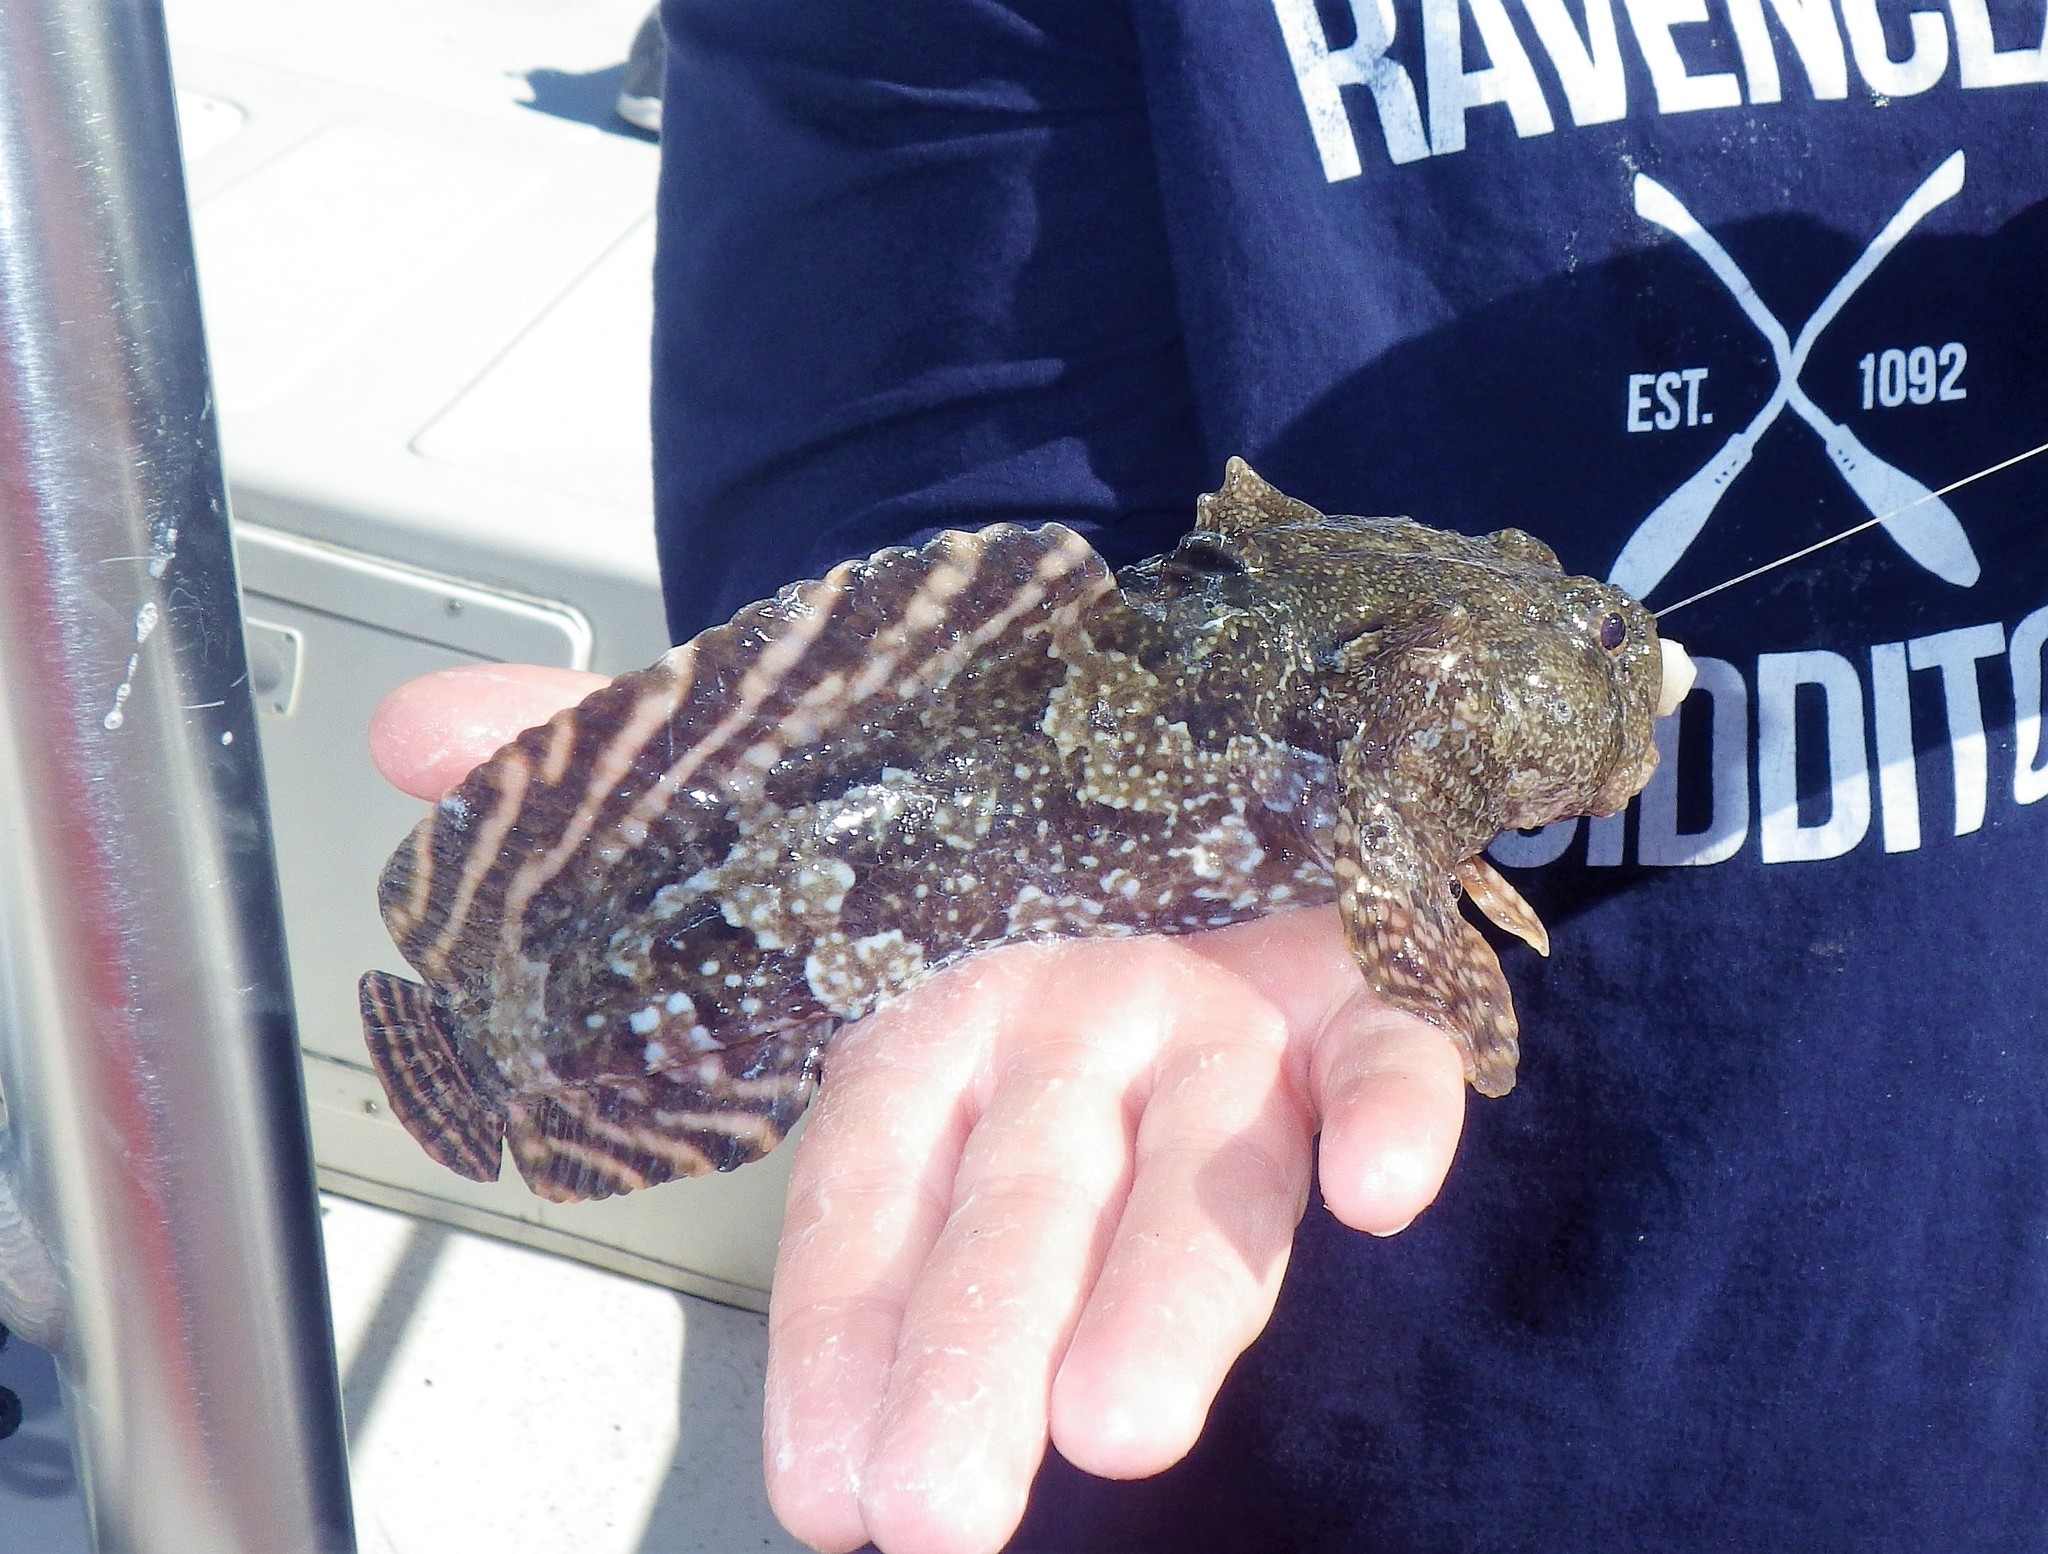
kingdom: Animalia
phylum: Chordata
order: Batrachoidiformes
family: Batrachoididae
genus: Opsanus
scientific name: Opsanus beta
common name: Gulf toadfish
